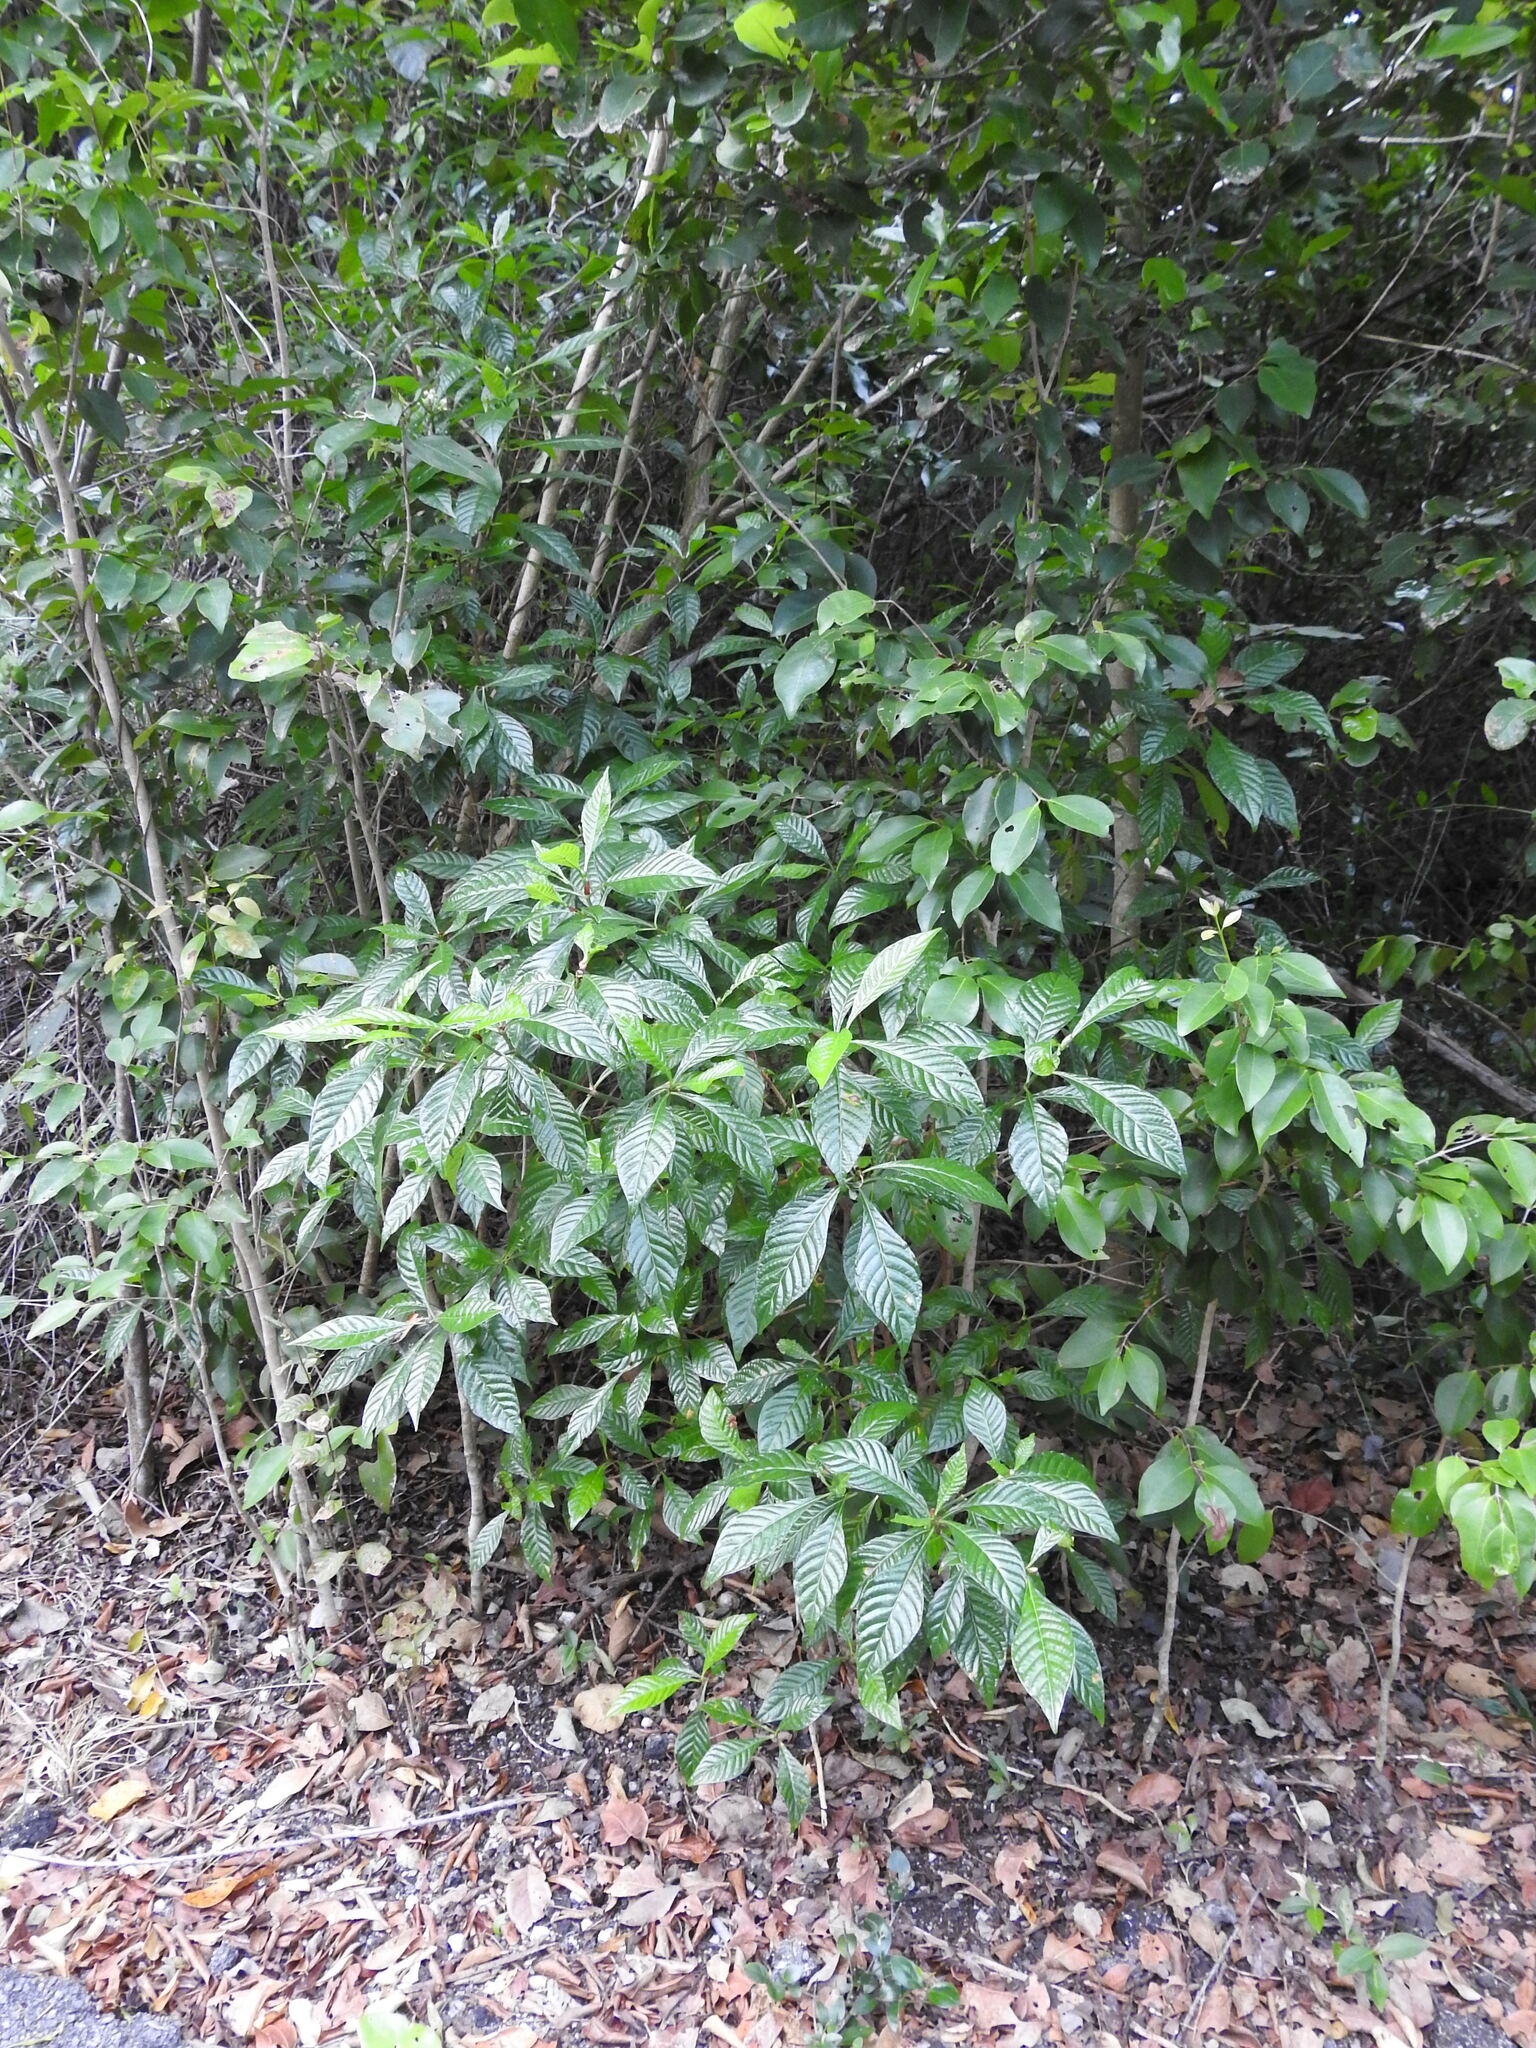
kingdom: Plantae
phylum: Tracheophyta
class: Magnoliopsida
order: Gentianales
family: Rubiaceae
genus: Psychotria
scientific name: Psychotria nervosa
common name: Bastard cankerberry
